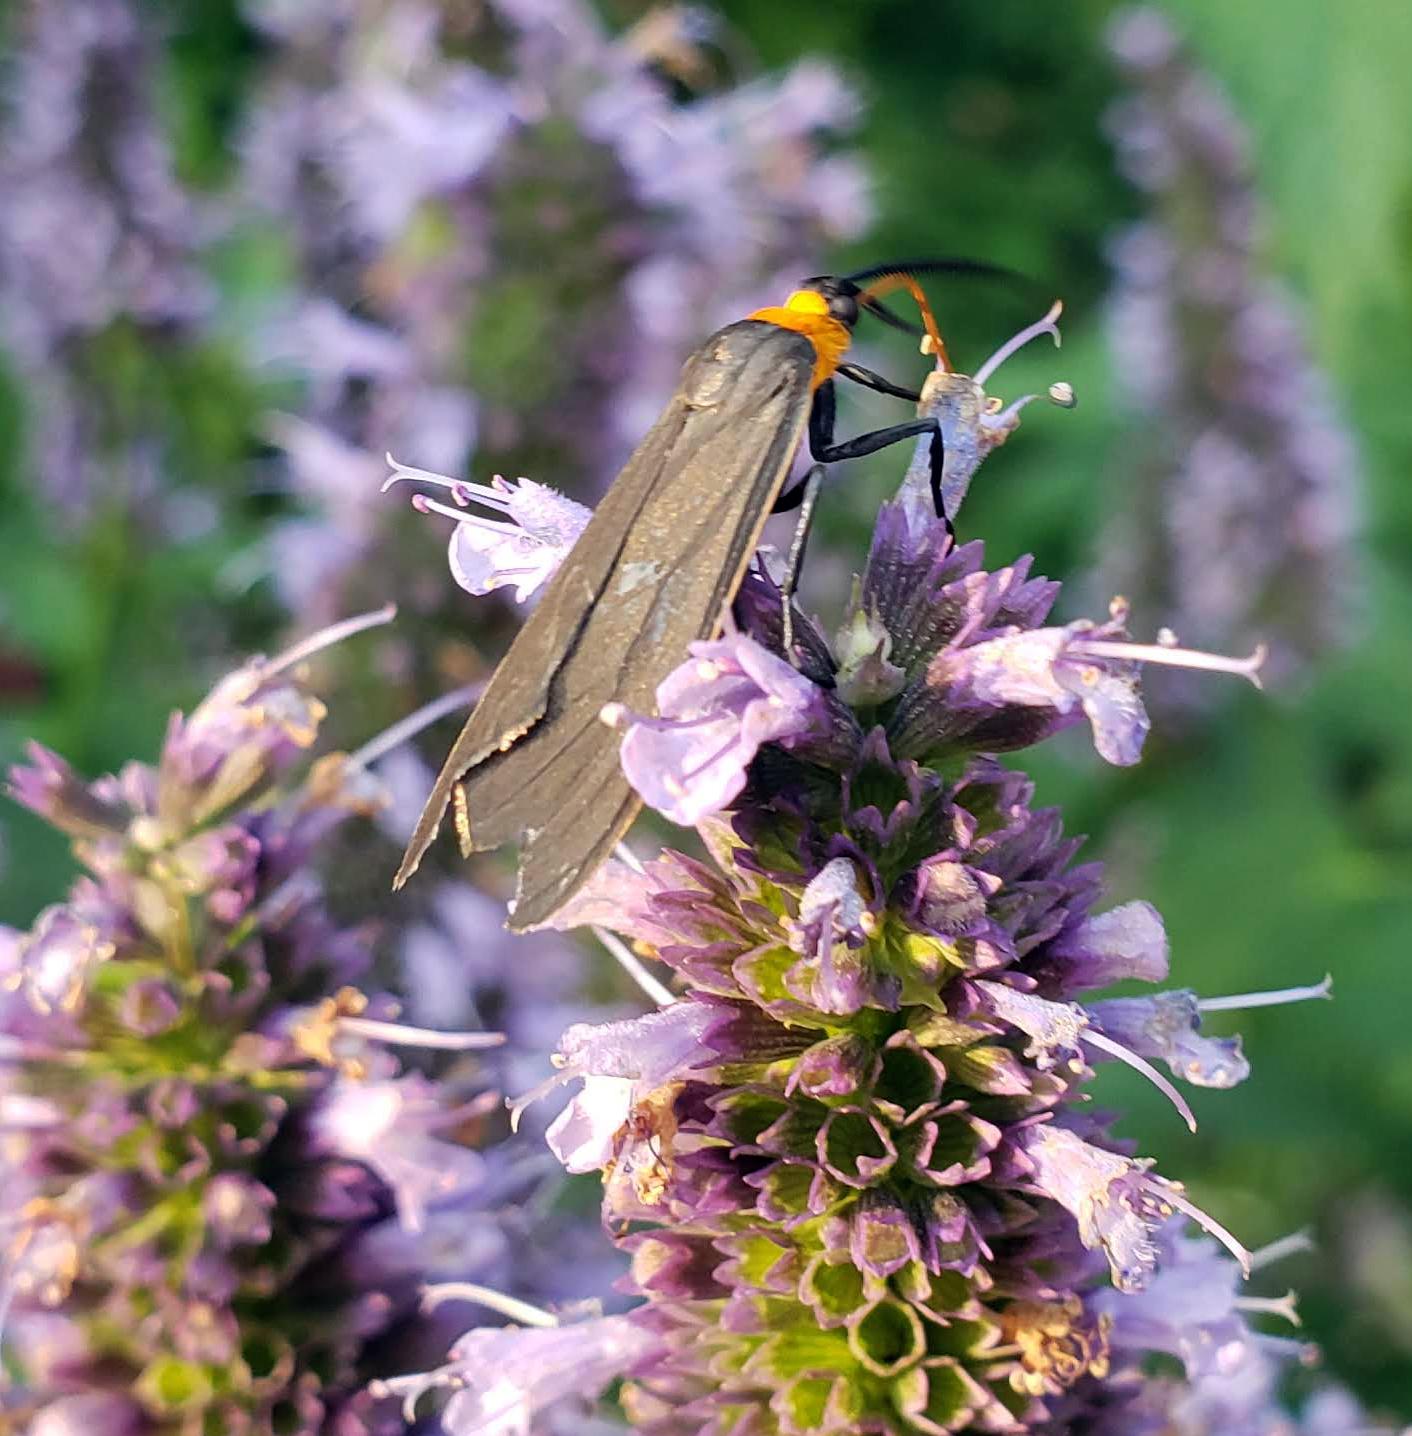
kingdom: Animalia
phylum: Arthropoda
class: Insecta
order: Lepidoptera
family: Erebidae
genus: Cisseps
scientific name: Cisseps fulvicollis
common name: Yellow-collared scape moth
